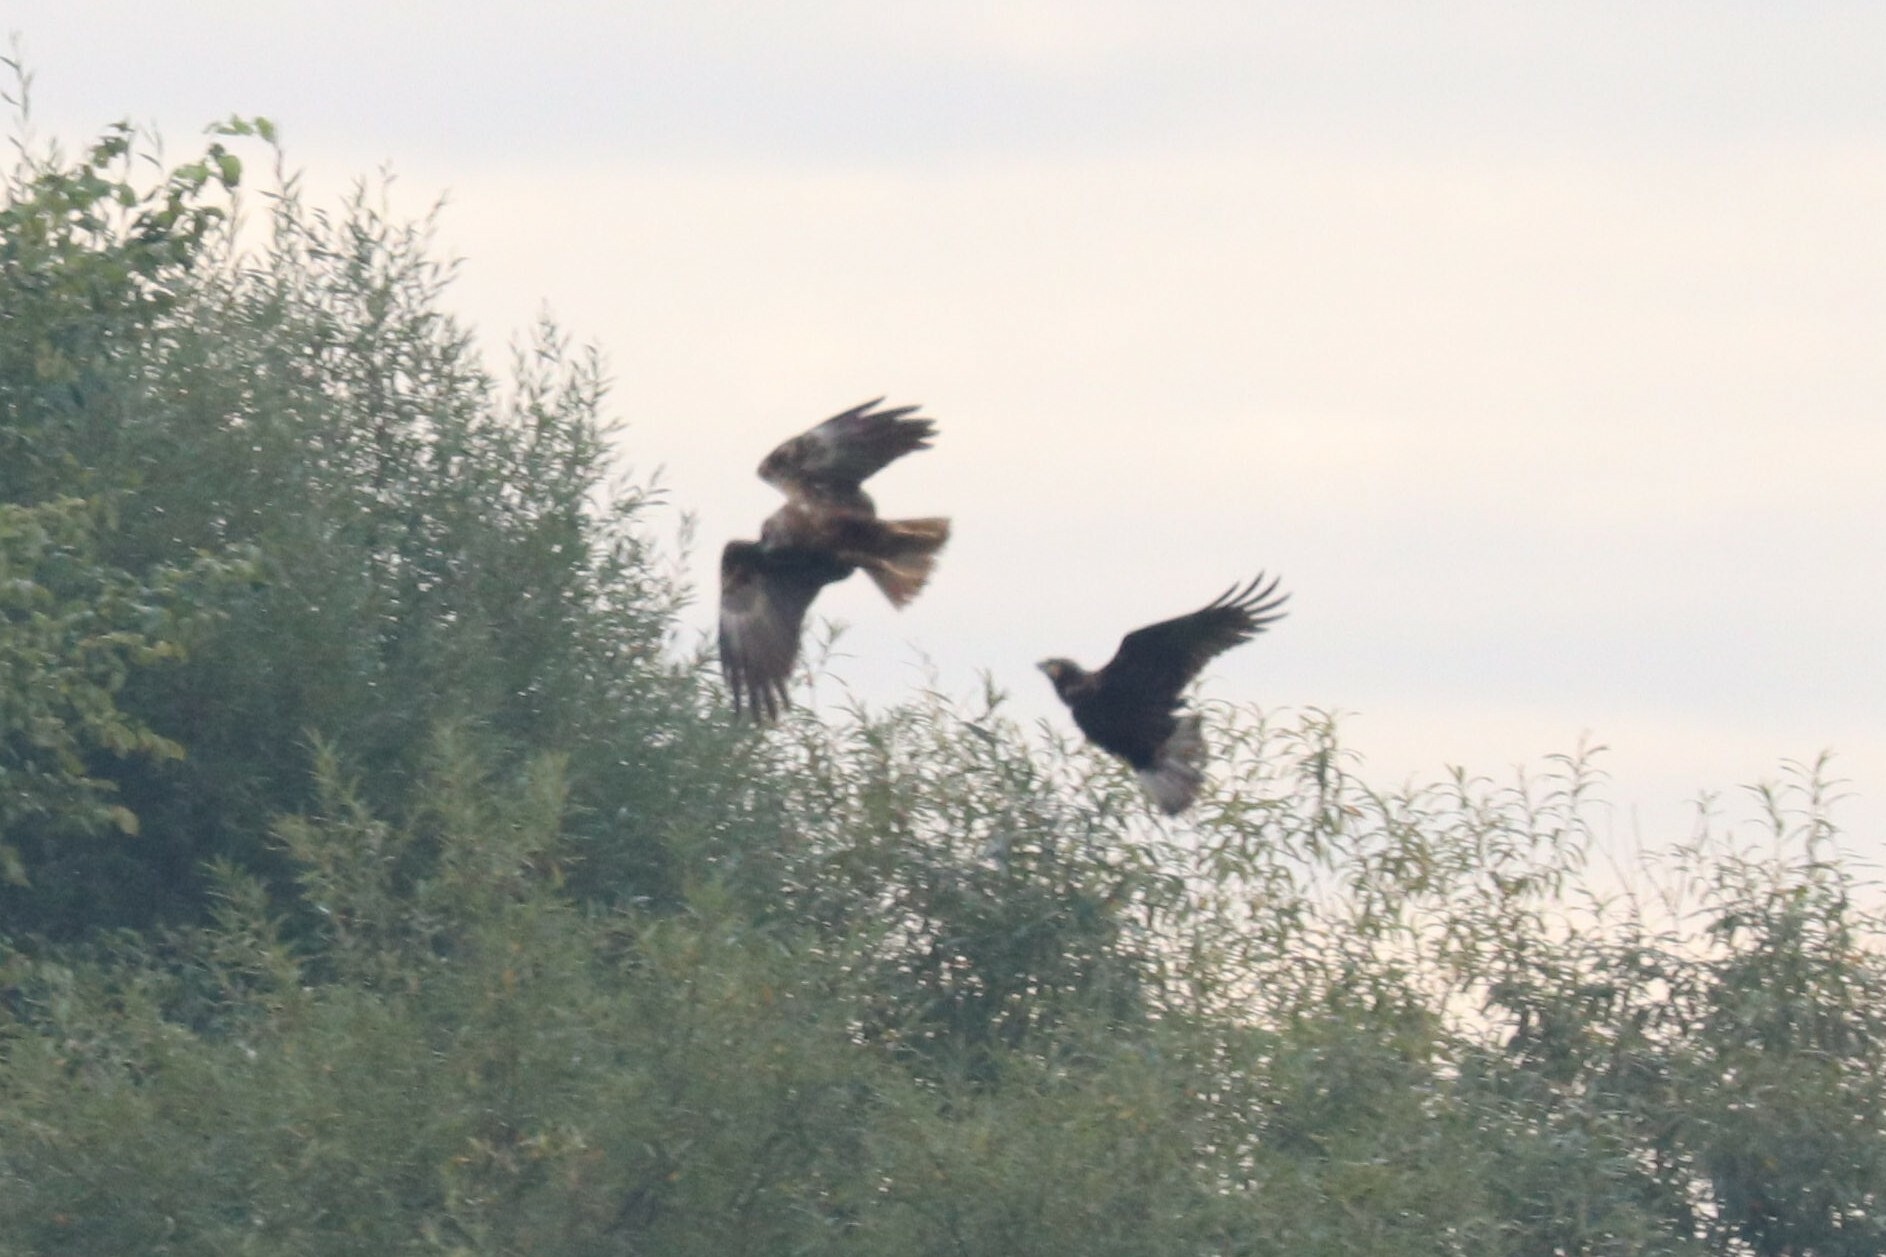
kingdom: Animalia
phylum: Chordata
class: Aves
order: Accipitriformes
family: Accipitridae
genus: Circus
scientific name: Circus aeruginosus
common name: Western marsh harrier
